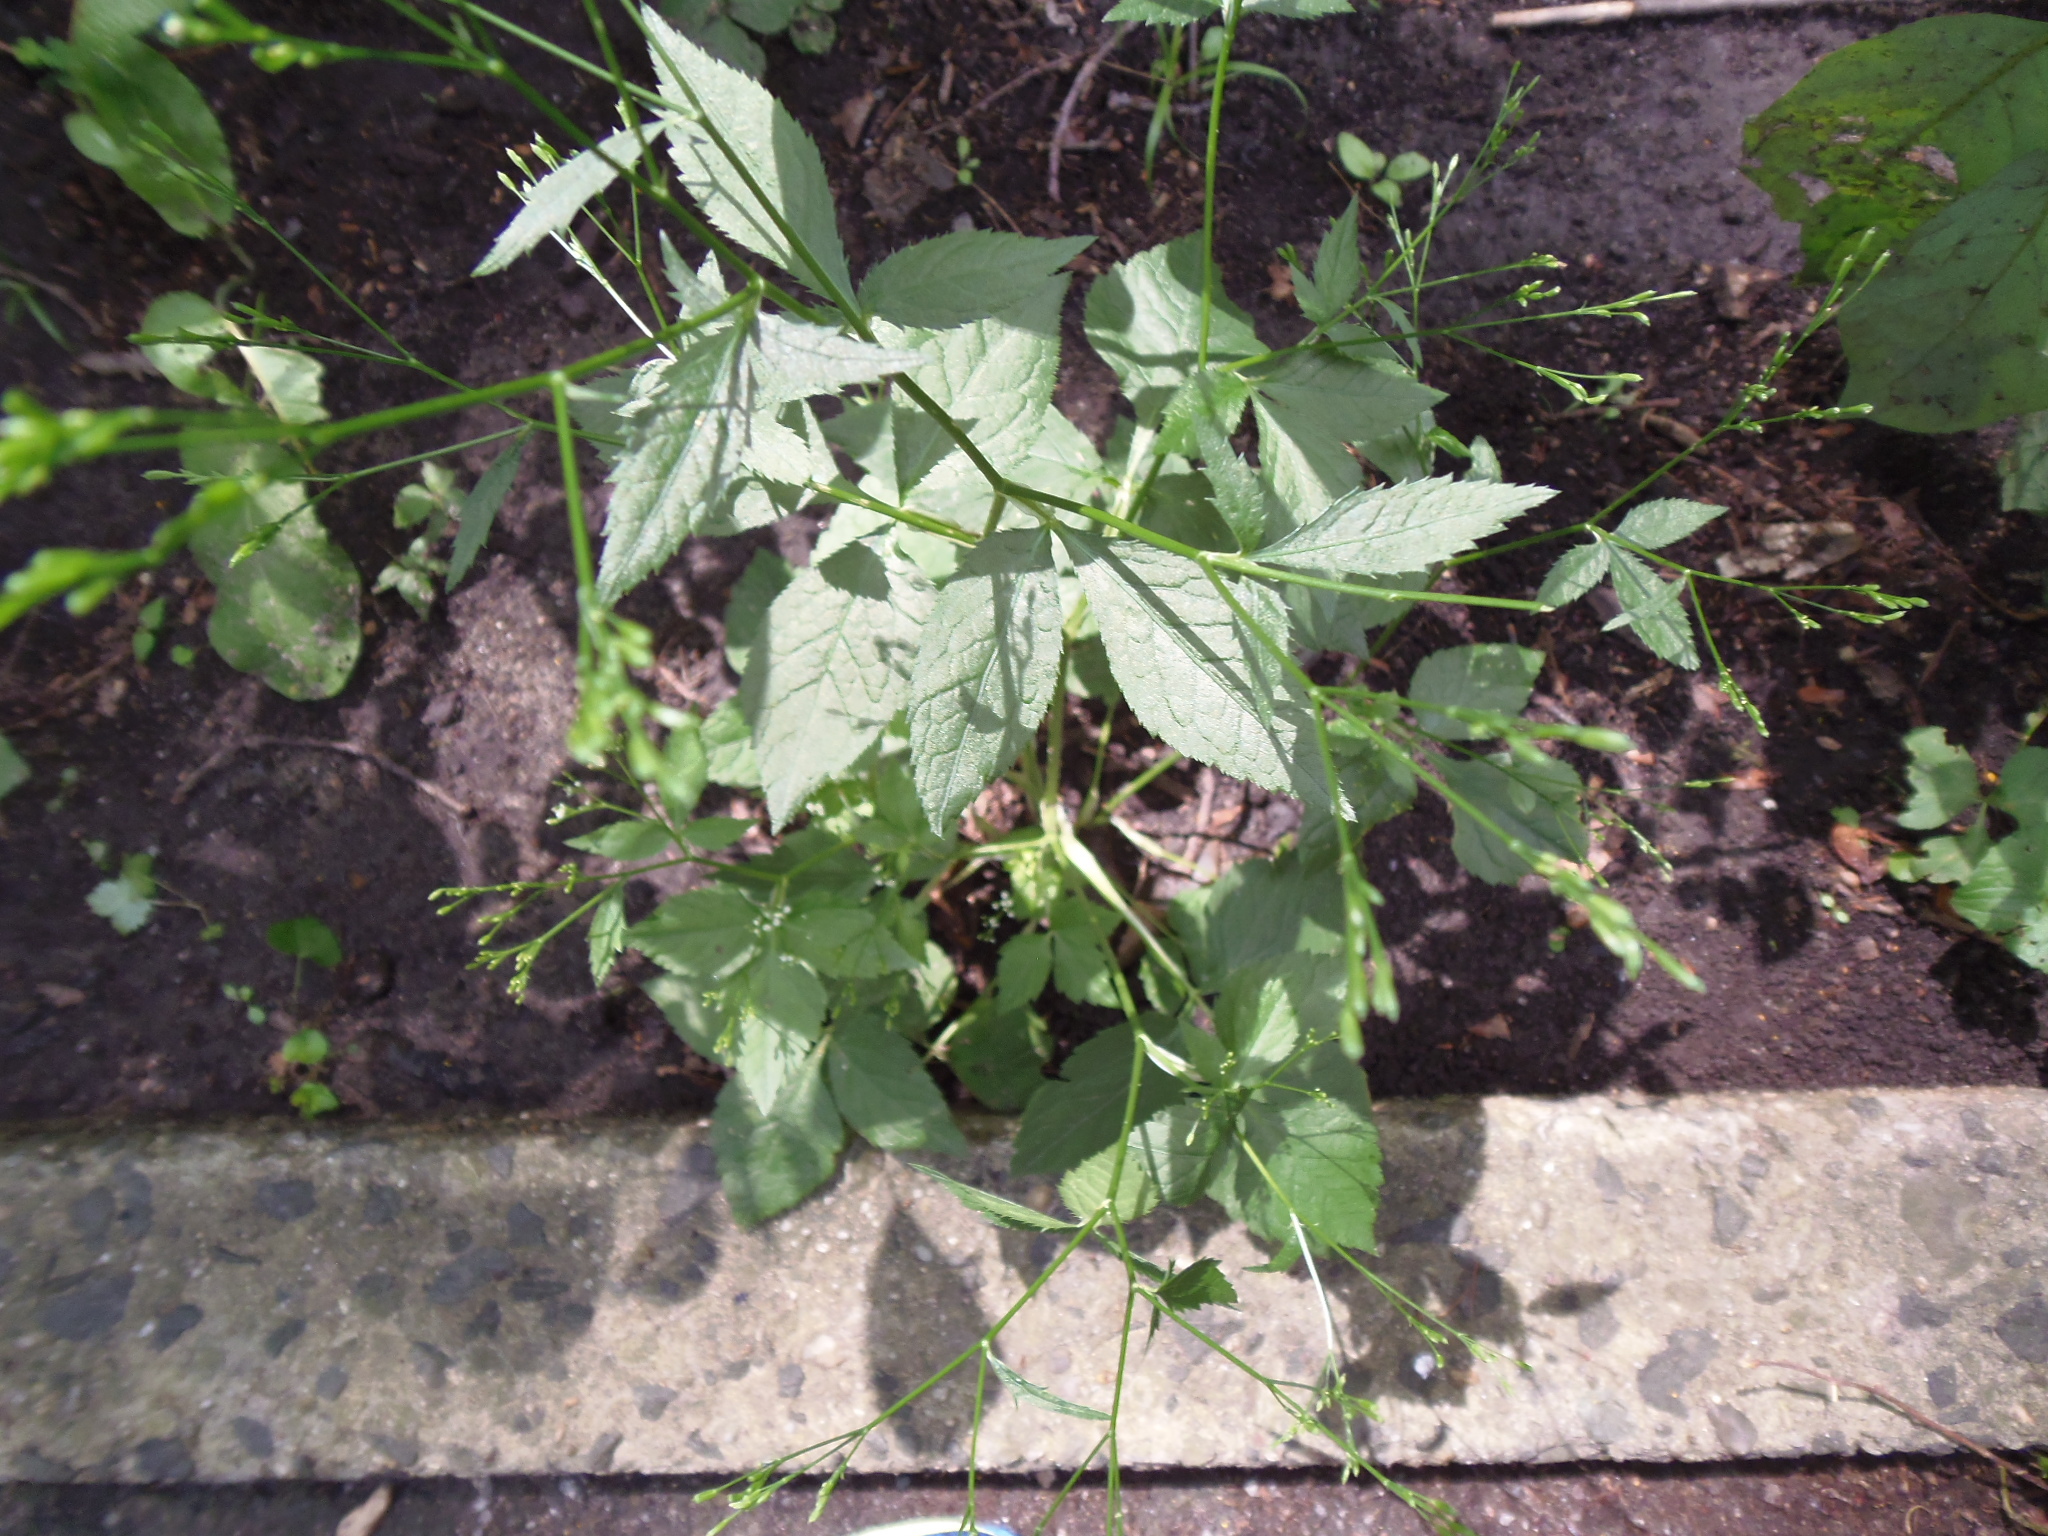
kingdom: Plantae
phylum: Tracheophyta
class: Magnoliopsida
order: Apiales
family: Apiaceae
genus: Cryptotaenia
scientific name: Cryptotaenia canadensis
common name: Honewort
